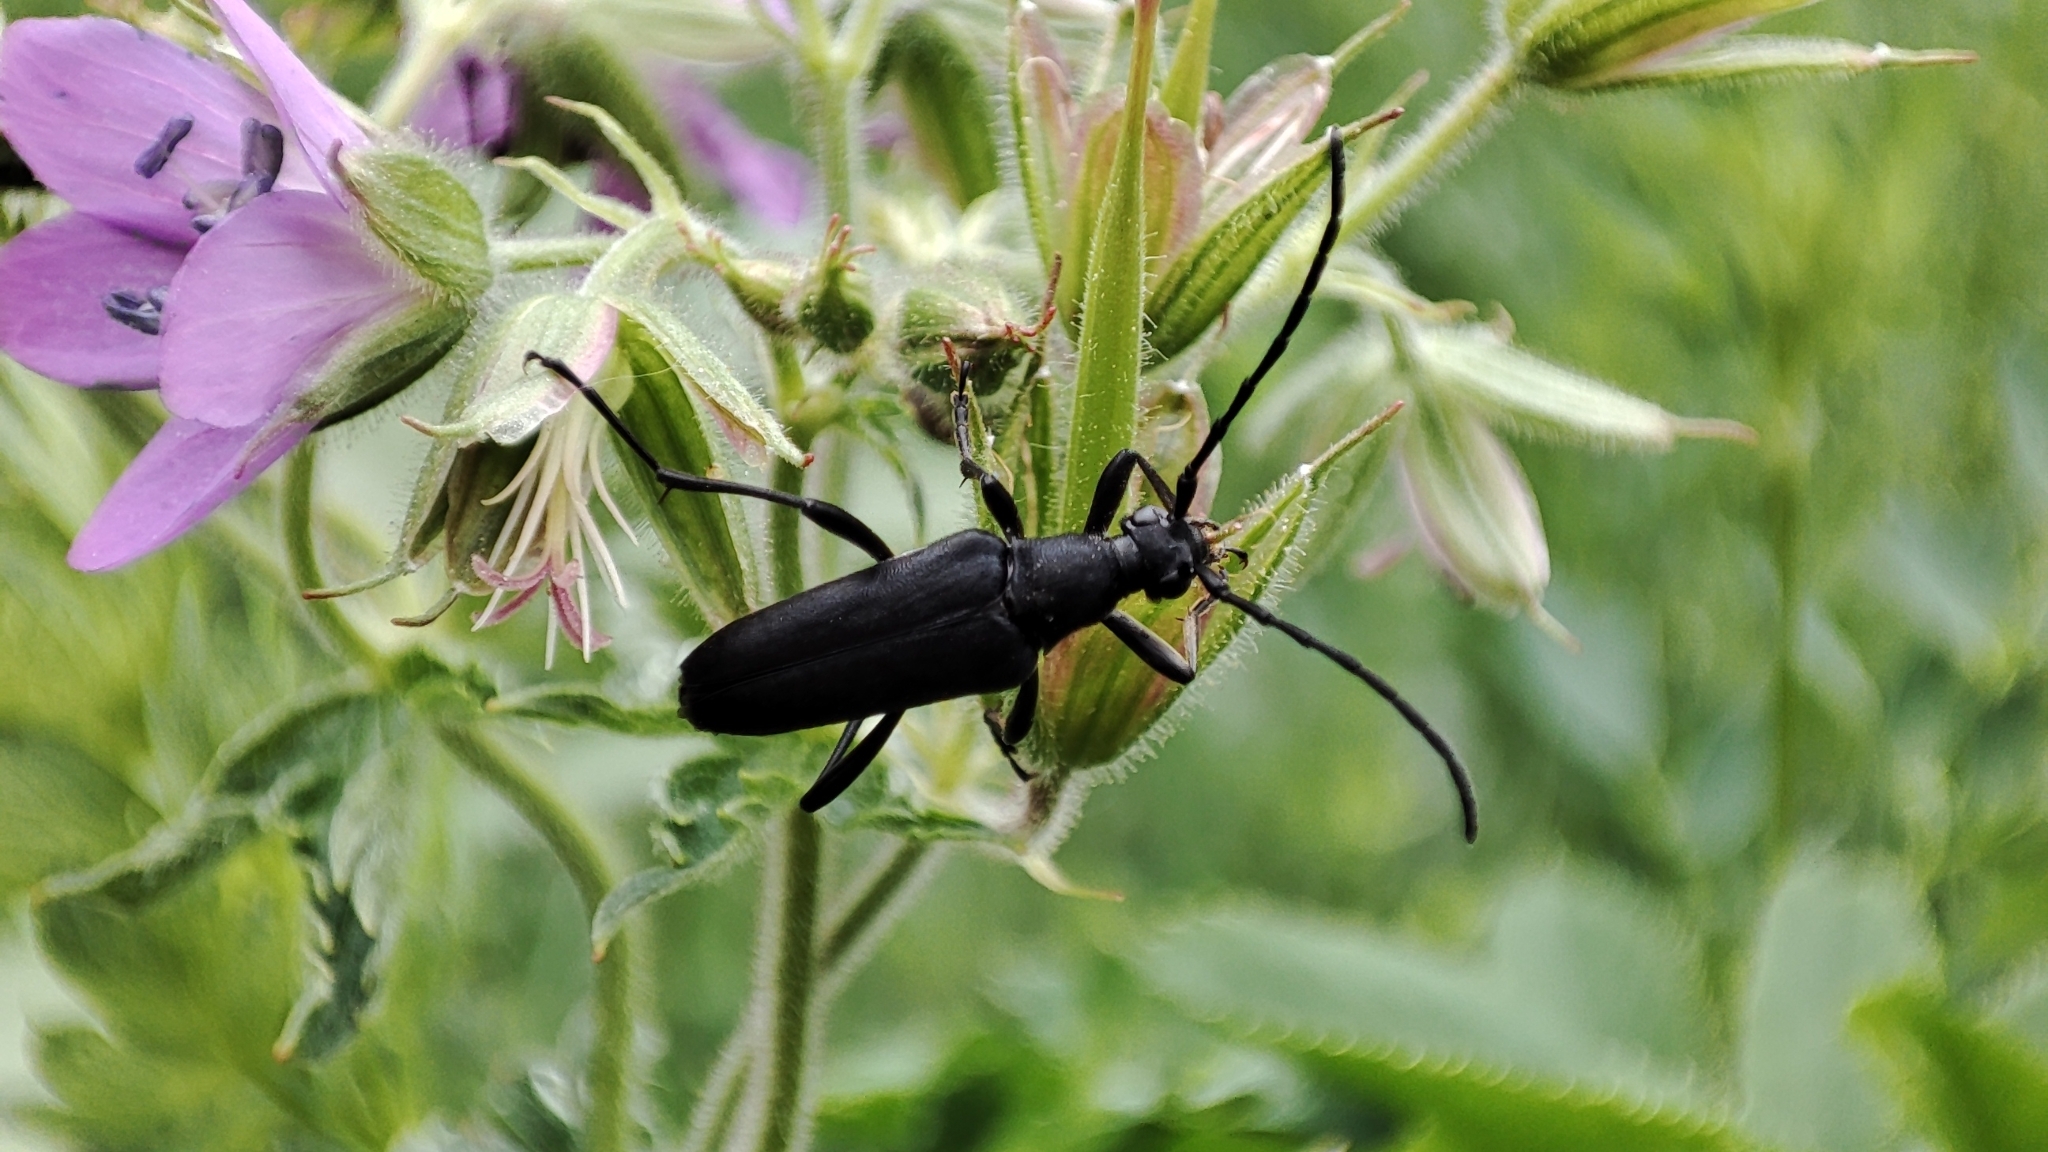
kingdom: Animalia
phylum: Arthropoda
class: Insecta
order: Coleoptera
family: Cerambycidae
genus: Leptura
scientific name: Leptura aethiops
